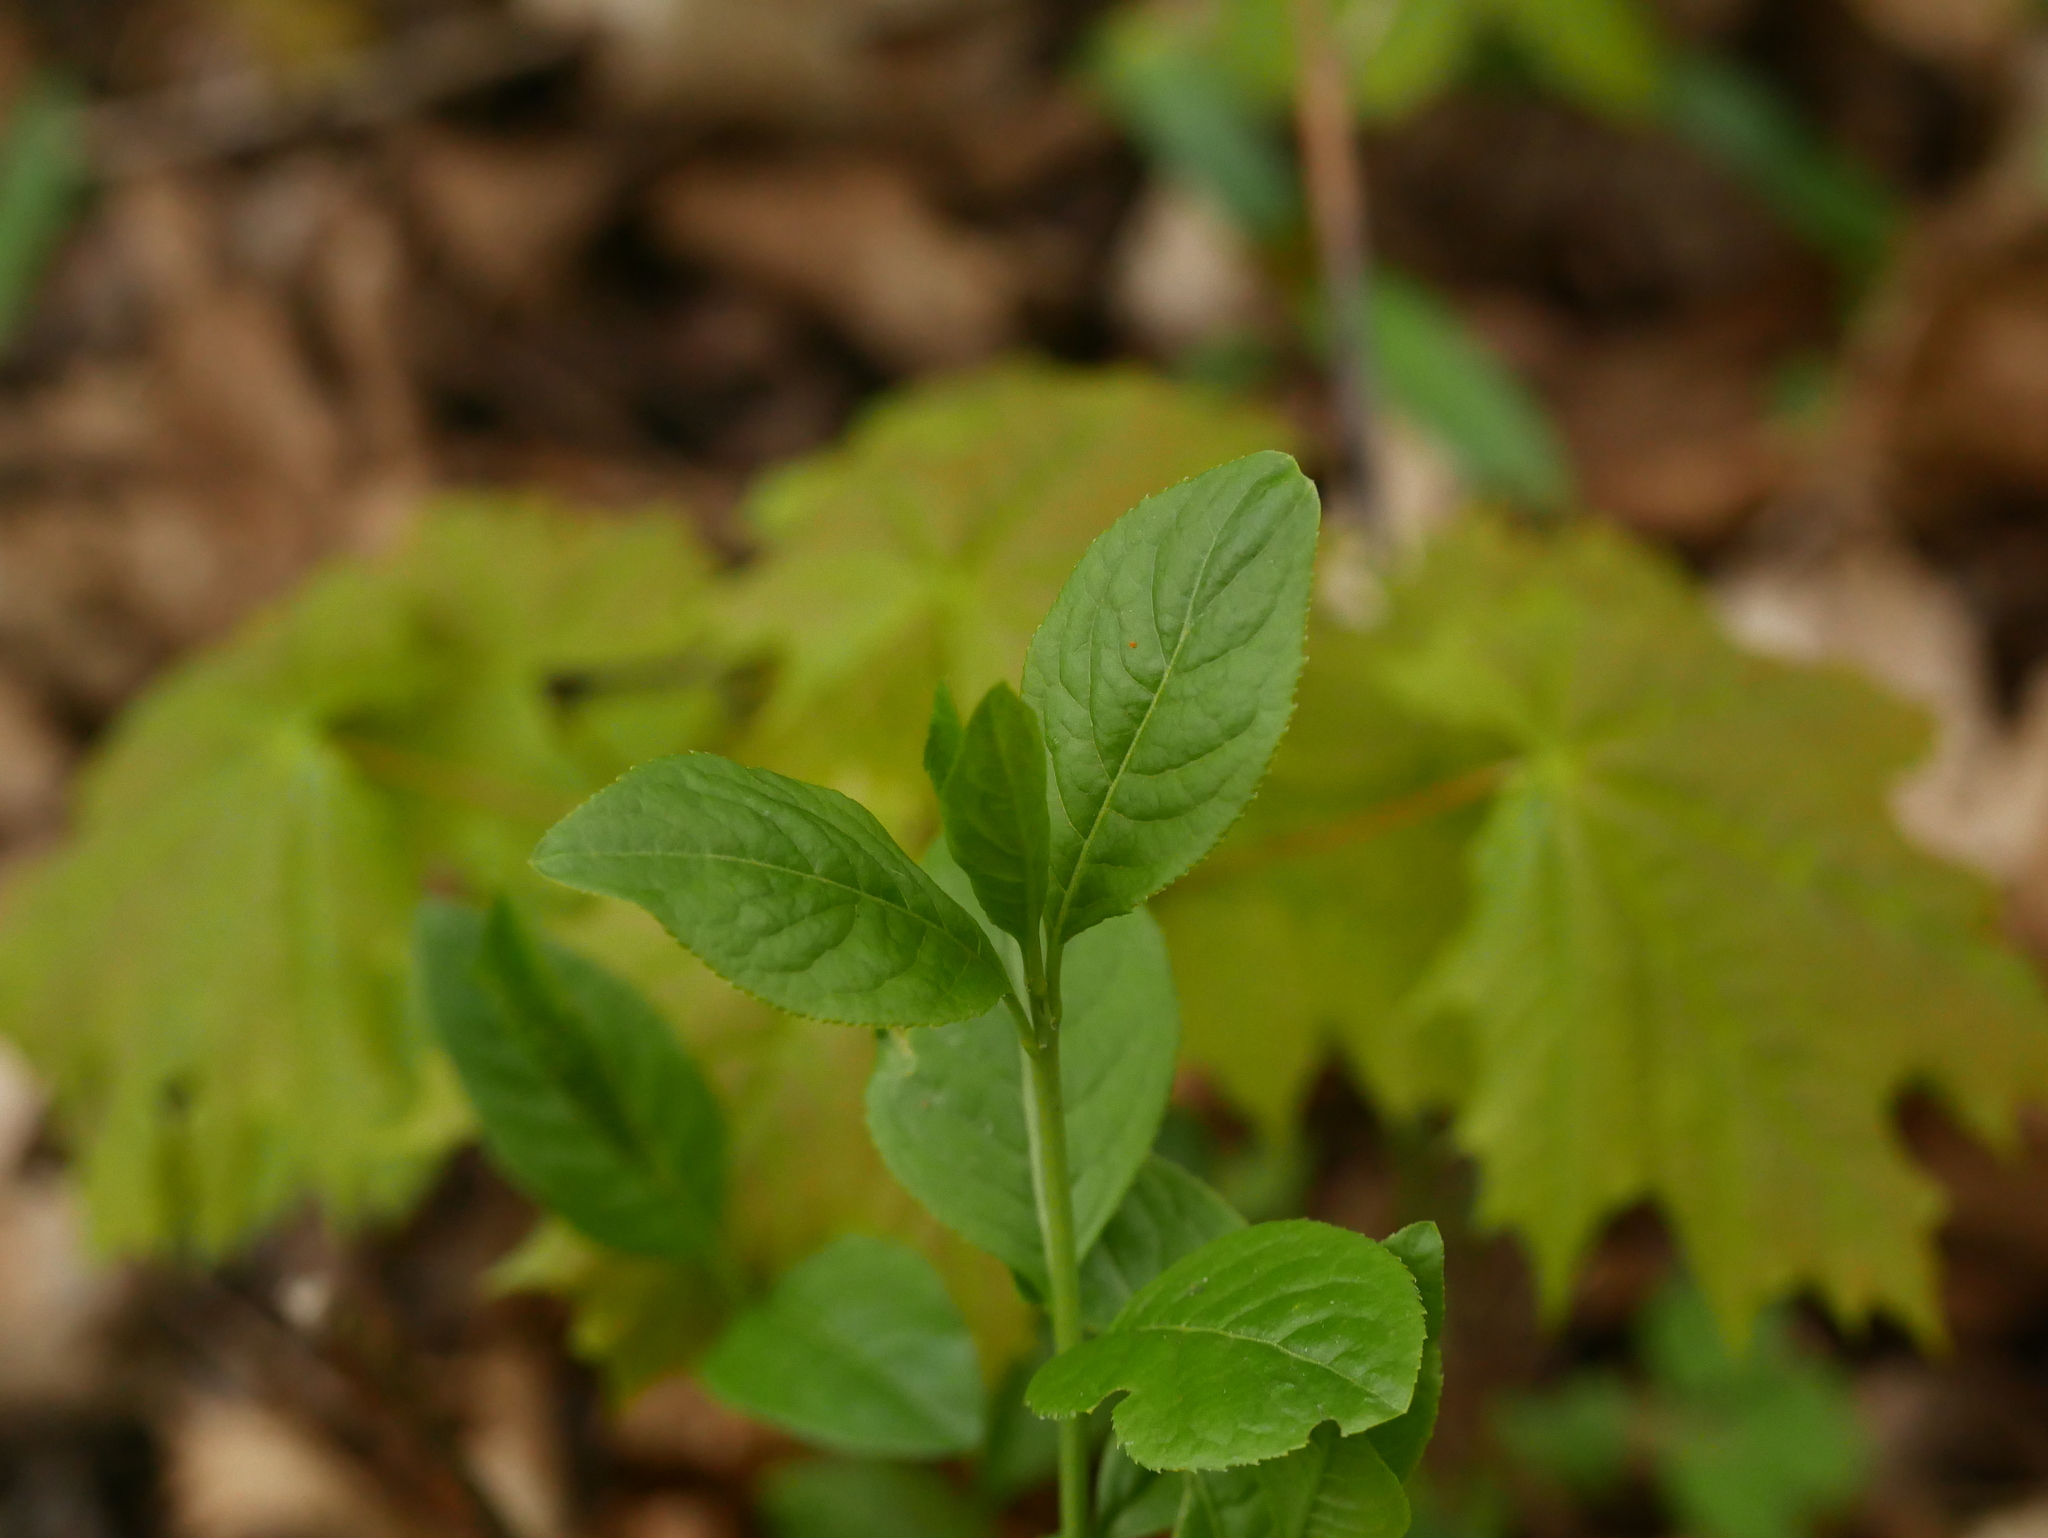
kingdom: Plantae
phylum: Tracheophyta
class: Magnoliopsida
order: Celastrales
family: Celastraceae
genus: Euonymus
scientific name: Euonymus europaeus
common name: Spindle
